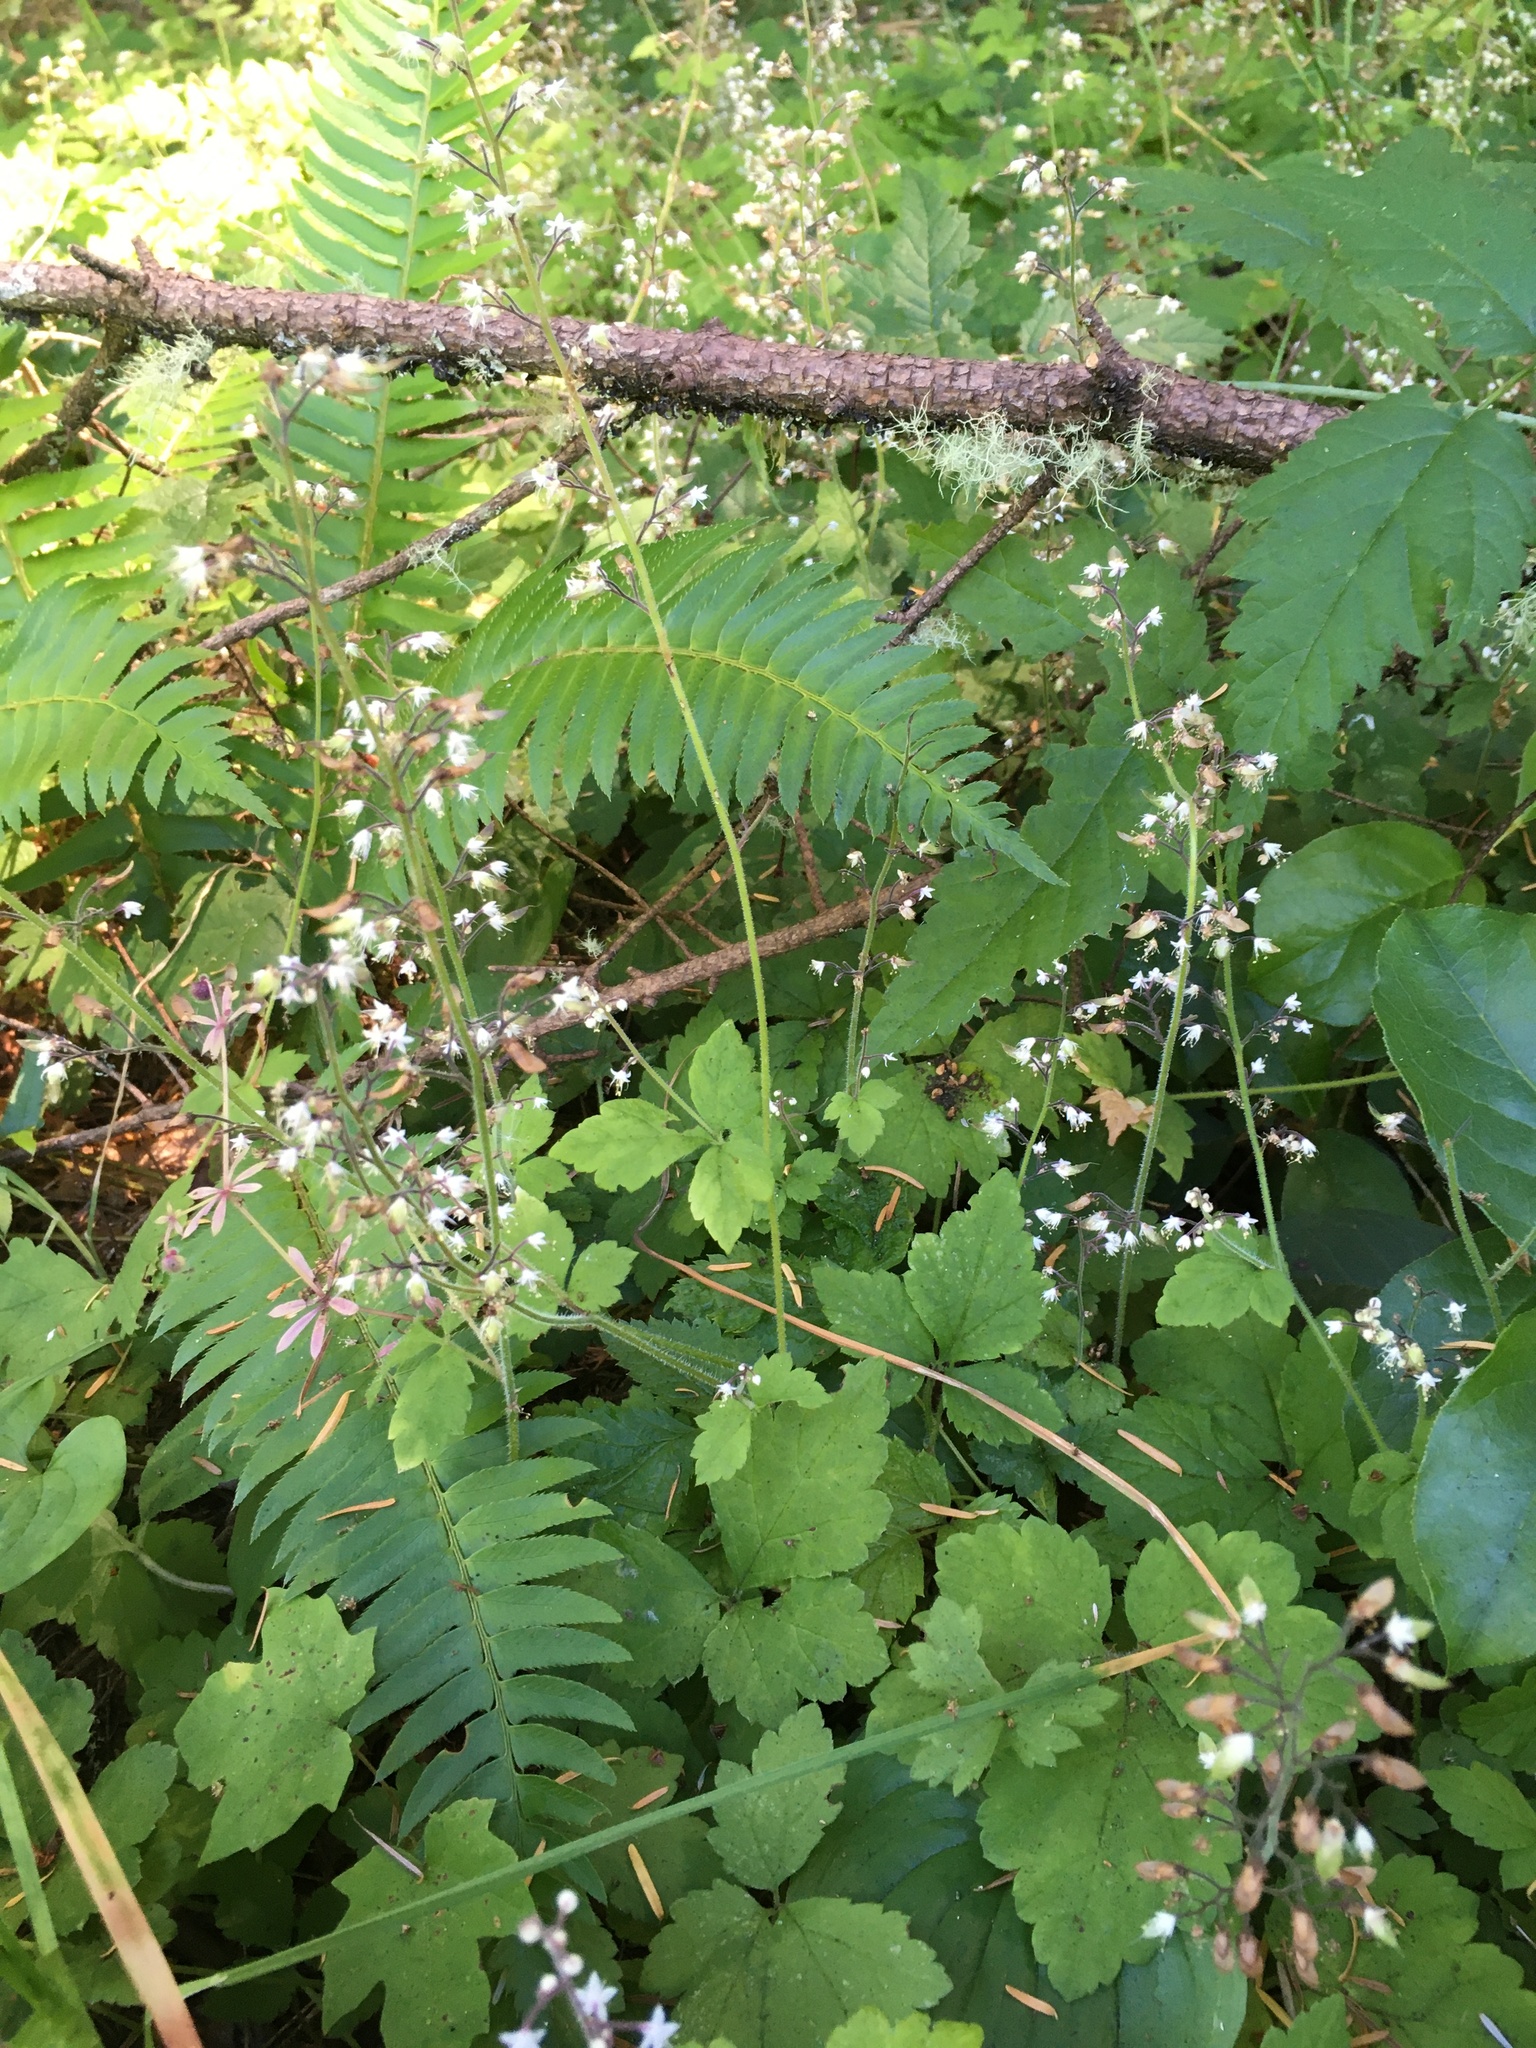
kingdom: Plantae
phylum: Tracheophyta
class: Magnoliopsida
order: Saxifragales
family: Saxifragaceae
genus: Tiarella
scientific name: Tiarella trifoliata
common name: Sugar-scoop
